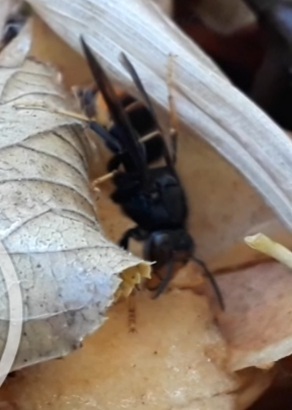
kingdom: Animalia
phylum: Arthropoda
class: Insecta
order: Hymenoptera
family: Vespidae
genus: Vespa
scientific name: Vespa velutina
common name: Asian hornet
